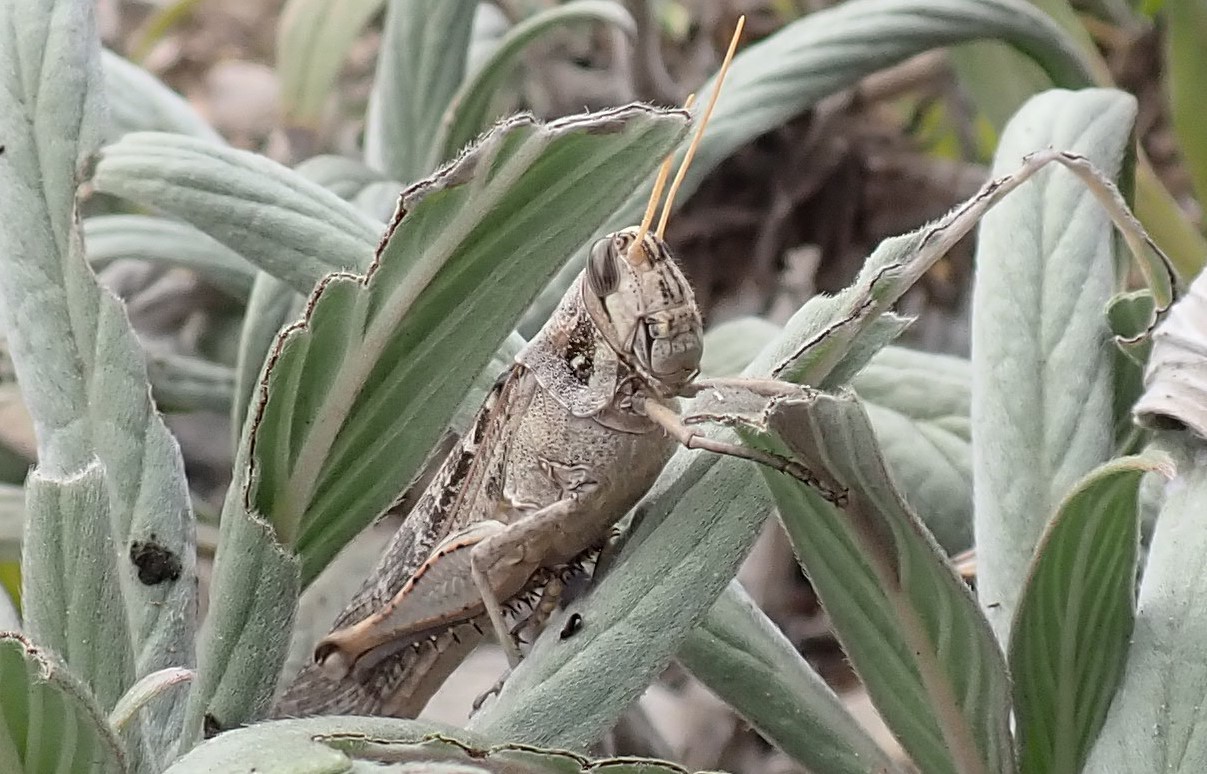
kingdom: Animalia
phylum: Arthropoda
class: Insecta
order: Orthoptera
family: Acrididae
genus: Schistocerca
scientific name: Schistocerca nitens
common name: Vagrant grasshopper
